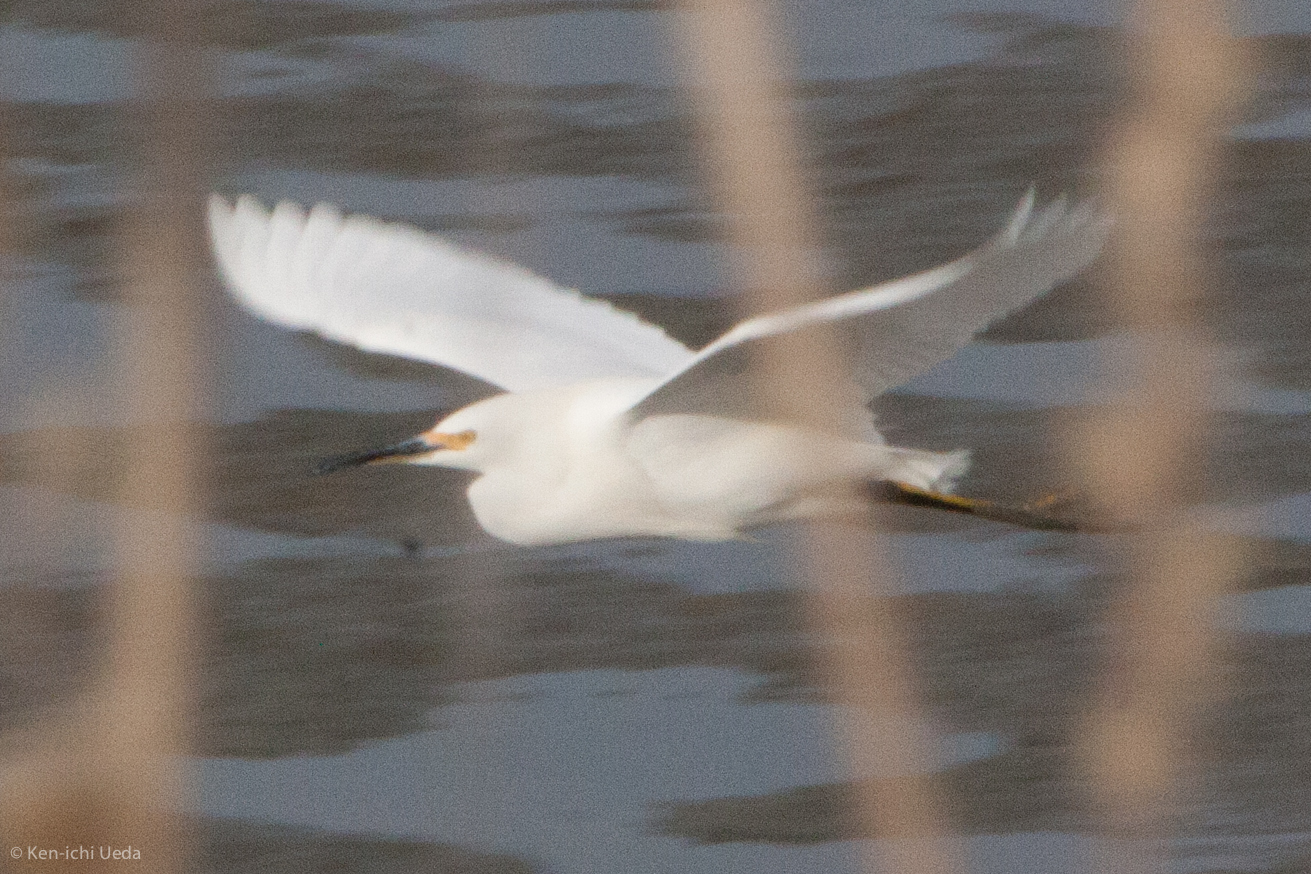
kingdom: Animalia
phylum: Chordata
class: Aves
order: Pelecaniformes
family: Ardeidae
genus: Egretta
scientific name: Egretta thula
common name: Snowy egret
